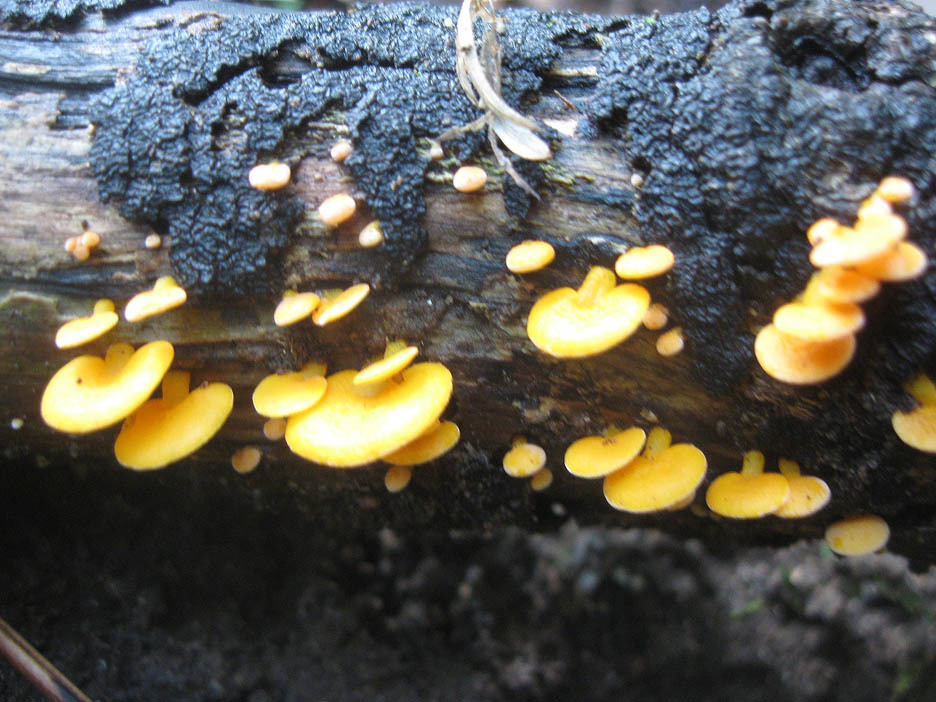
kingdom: Fungi
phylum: Basidiomycota
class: Agaricomycetes
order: Agaricales
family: Mycenaceae
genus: Favolaschia
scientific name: Favolaschia thwaitesii
